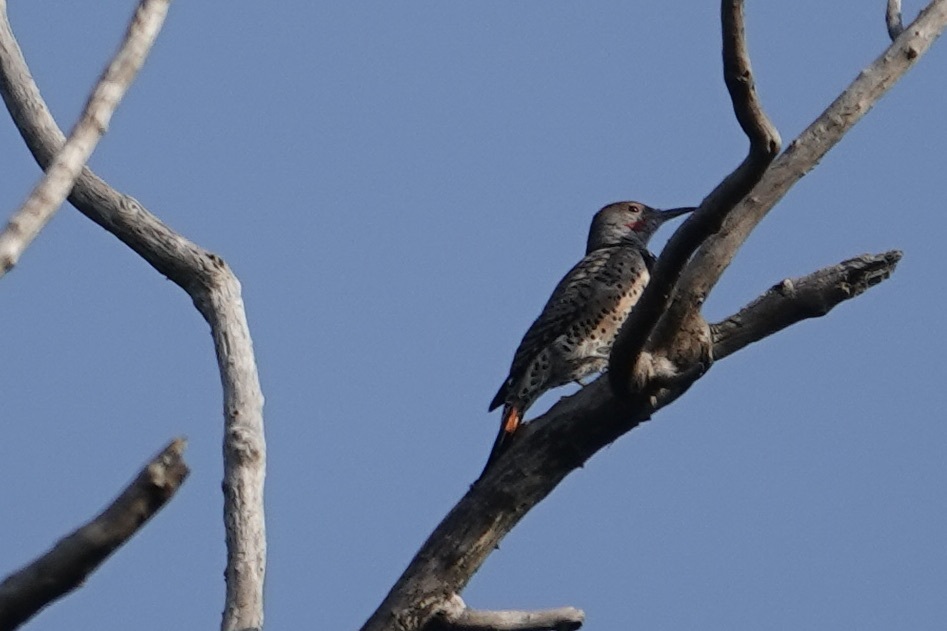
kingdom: Animalia
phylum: Chordata
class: Aves
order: Piciformes
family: Picidae
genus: Colaptes
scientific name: Colaptes auratus
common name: Northern flicker
